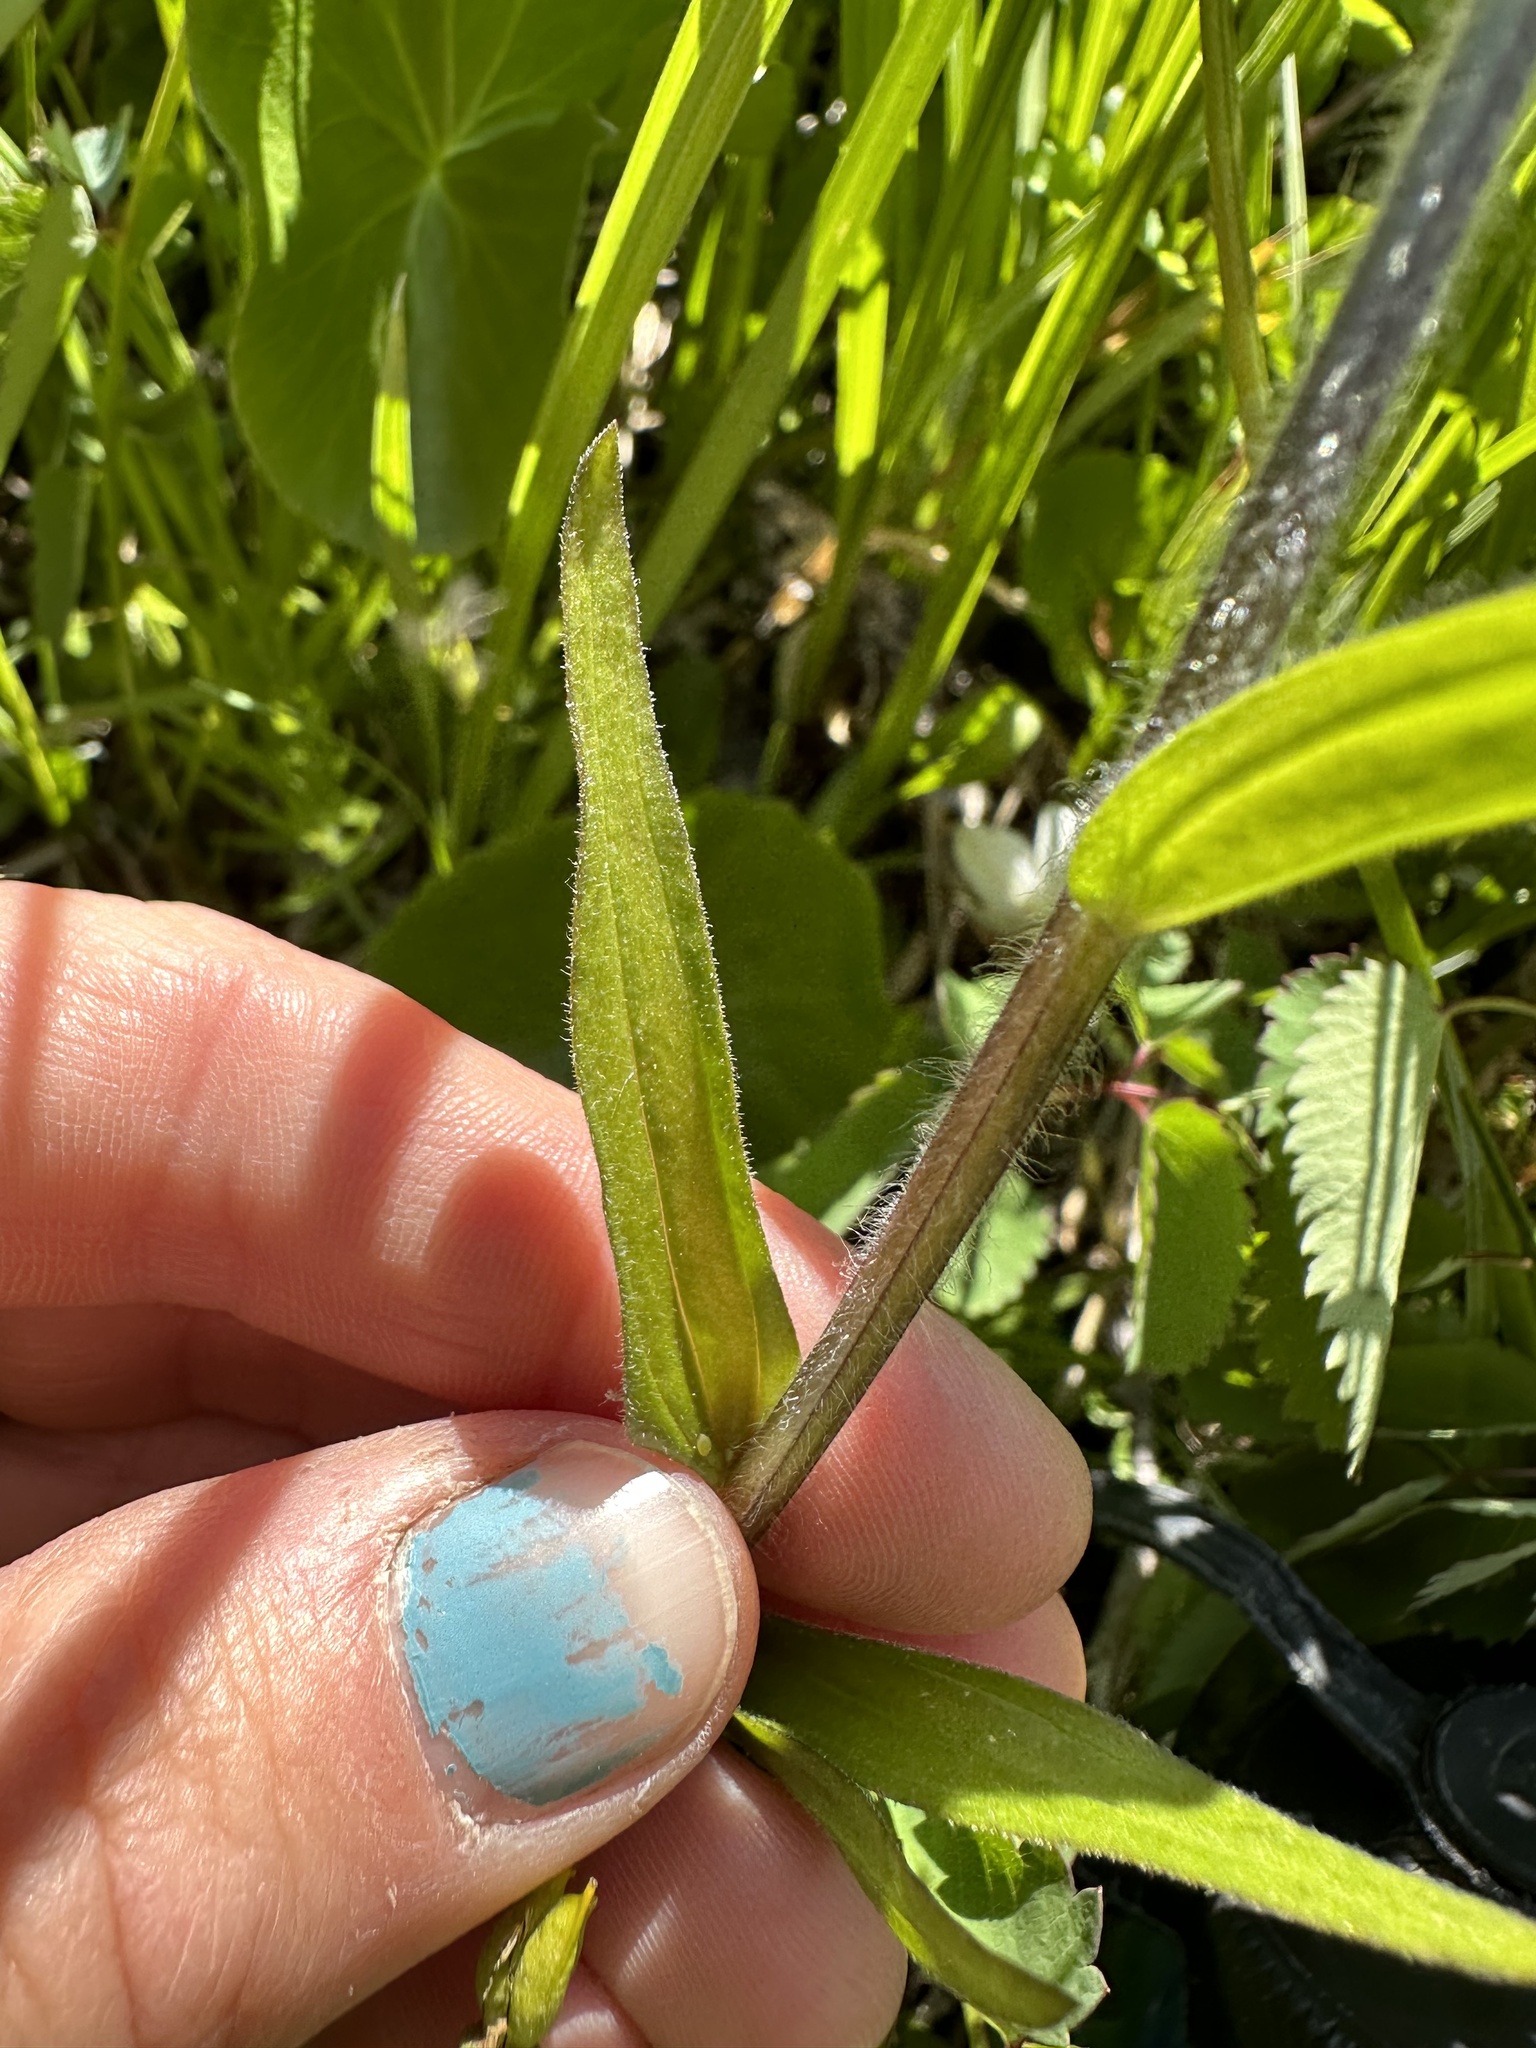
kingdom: Plantae
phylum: Tracheophyta
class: Magnoliopsida
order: Lamiales
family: Orobanchaceae
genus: Castilleja
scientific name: Castilleja suksdorfii
